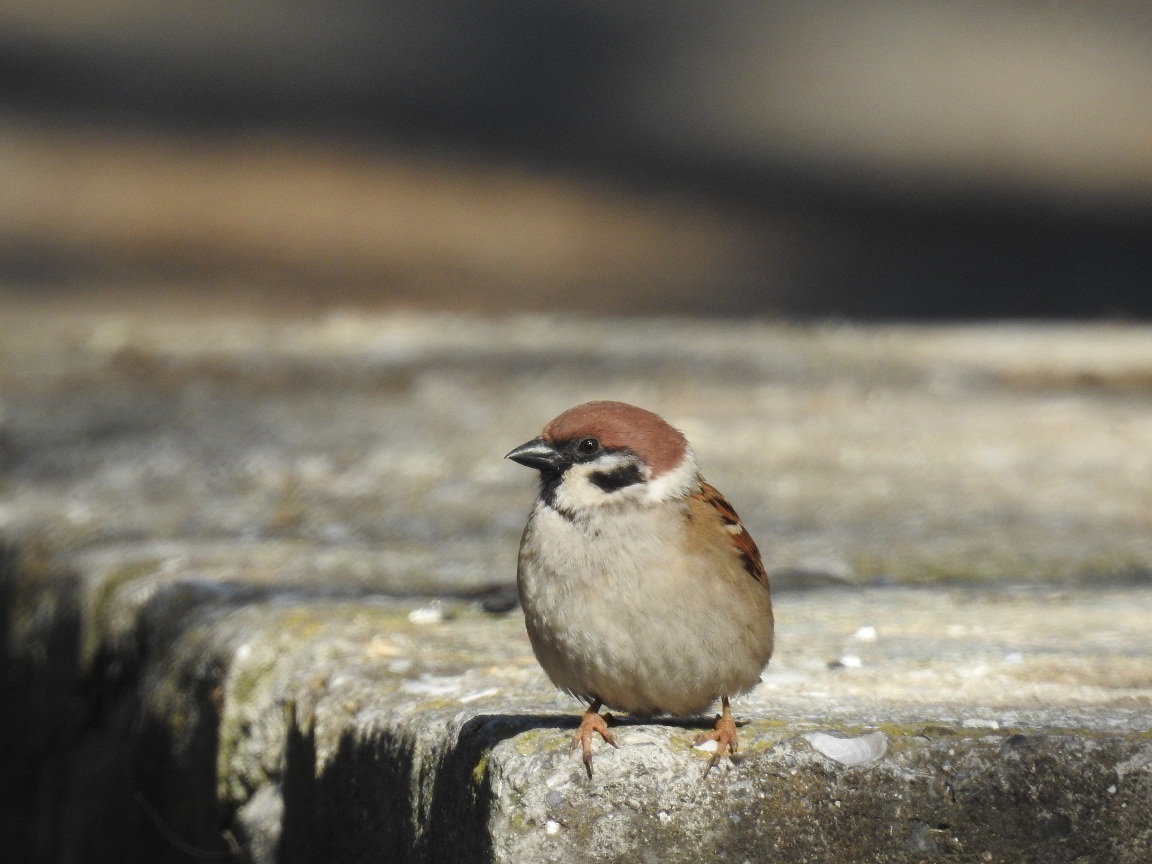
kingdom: Animalia
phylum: Chordata
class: Aves
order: Passeriformes
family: Passeridae
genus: Passer
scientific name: Passer montanus
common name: Eurasian tree sparrow
